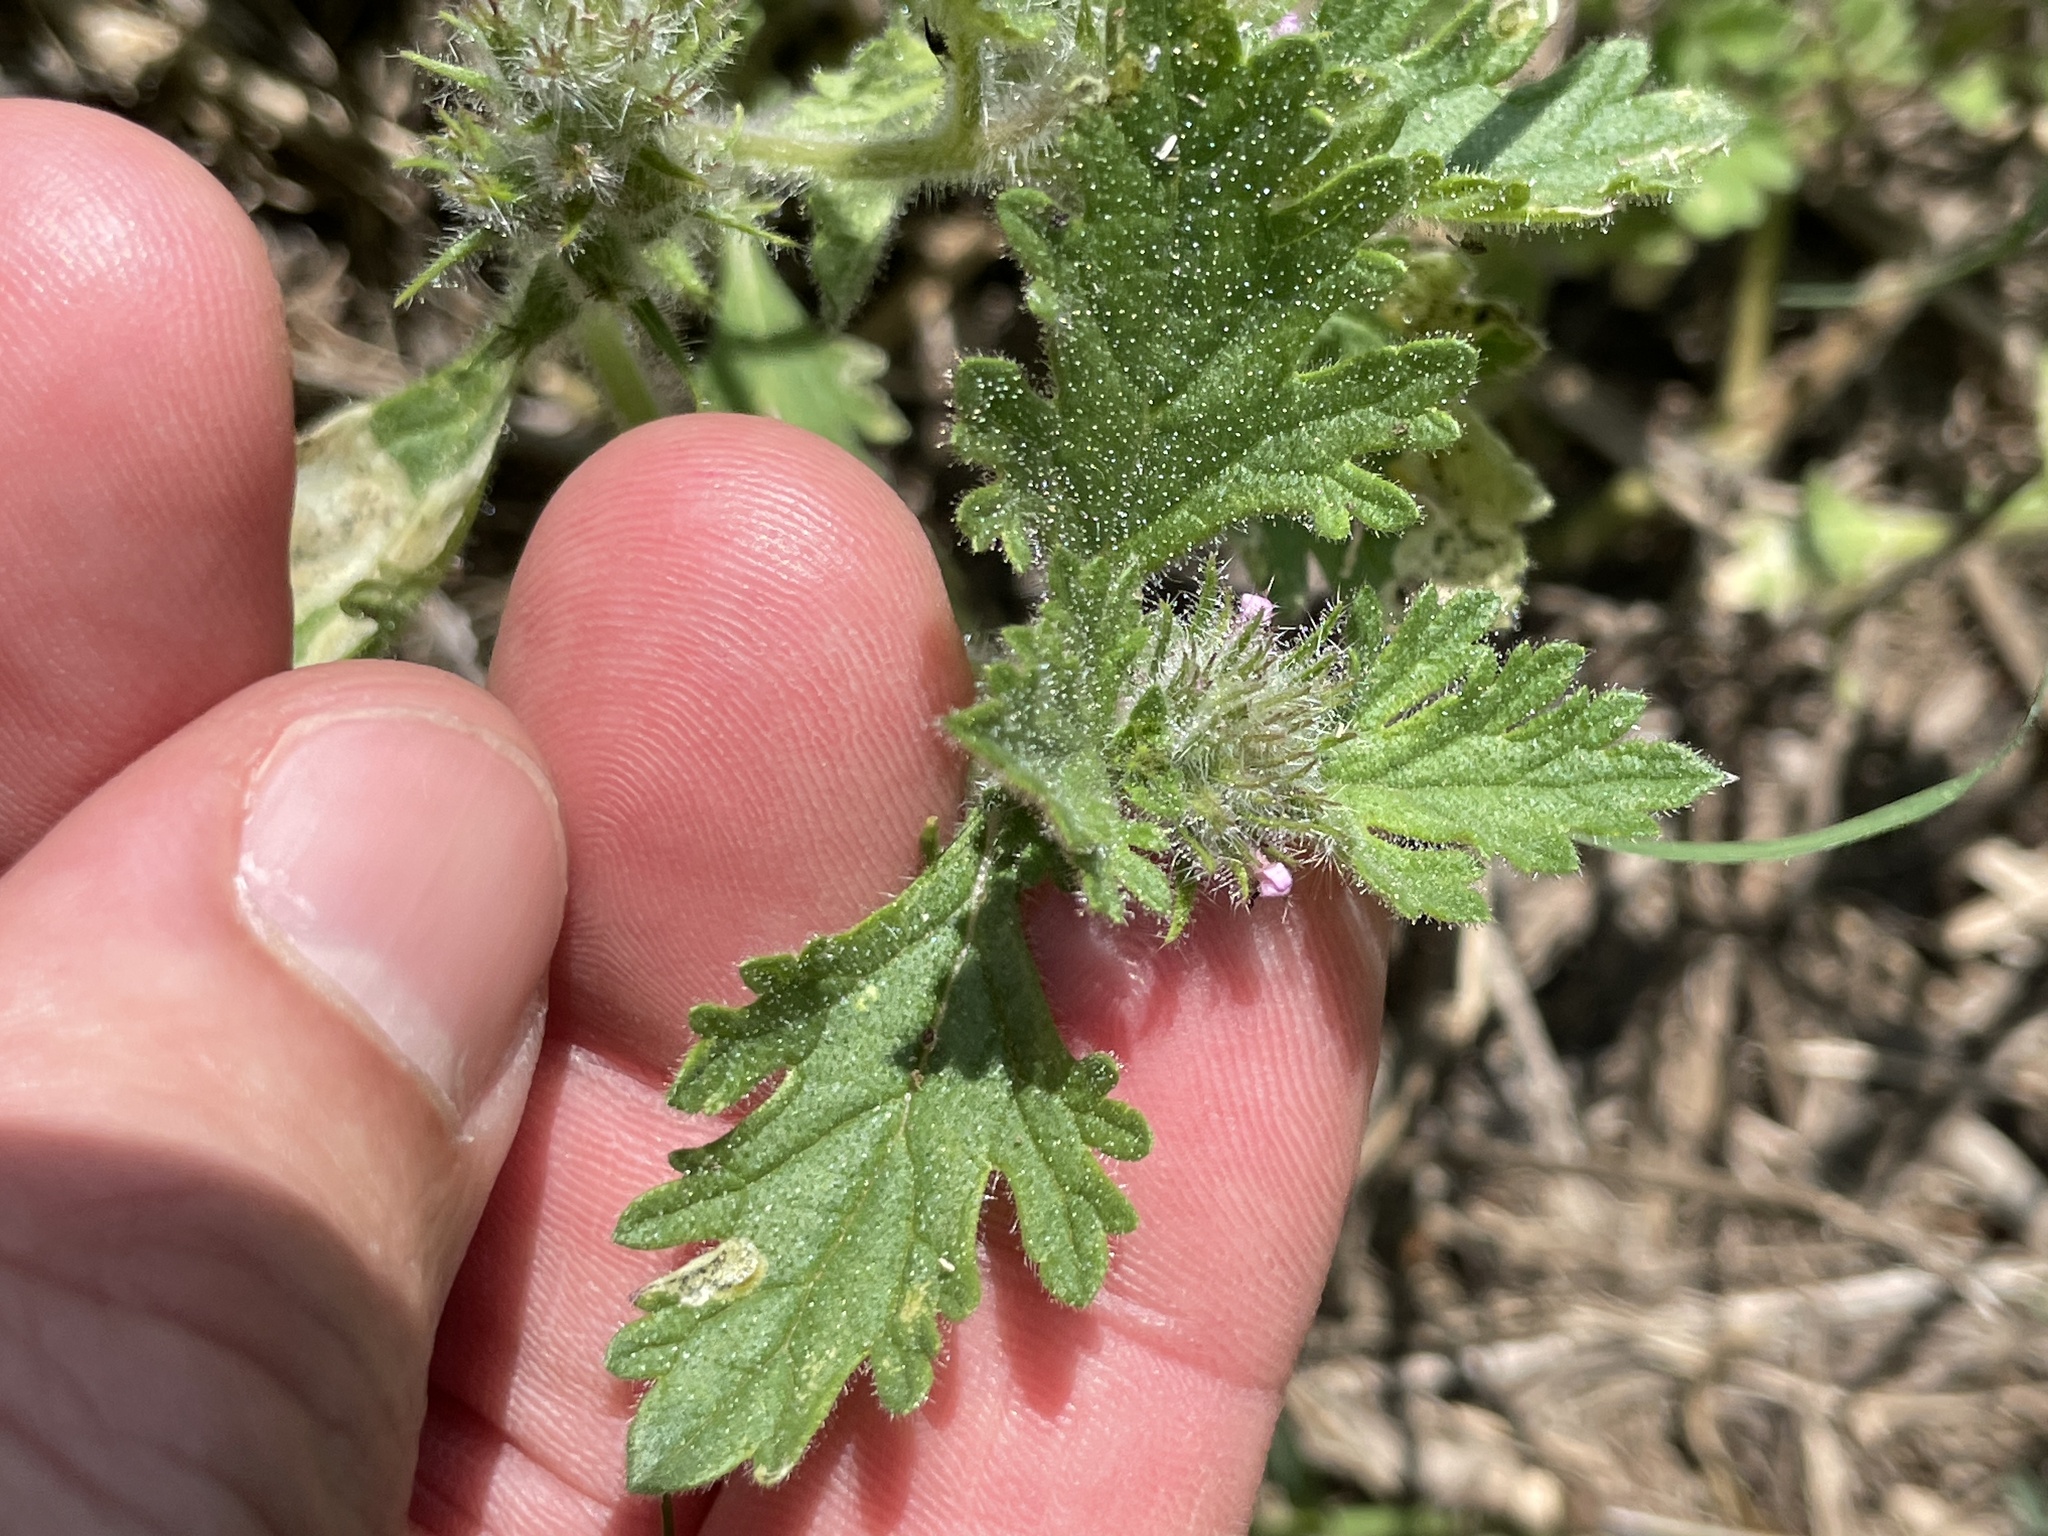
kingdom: Plantae
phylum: Tracheophyta
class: Magnoliopsida
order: Lamiales
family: Verbenaceae
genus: Verbena
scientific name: Verbena pumila
